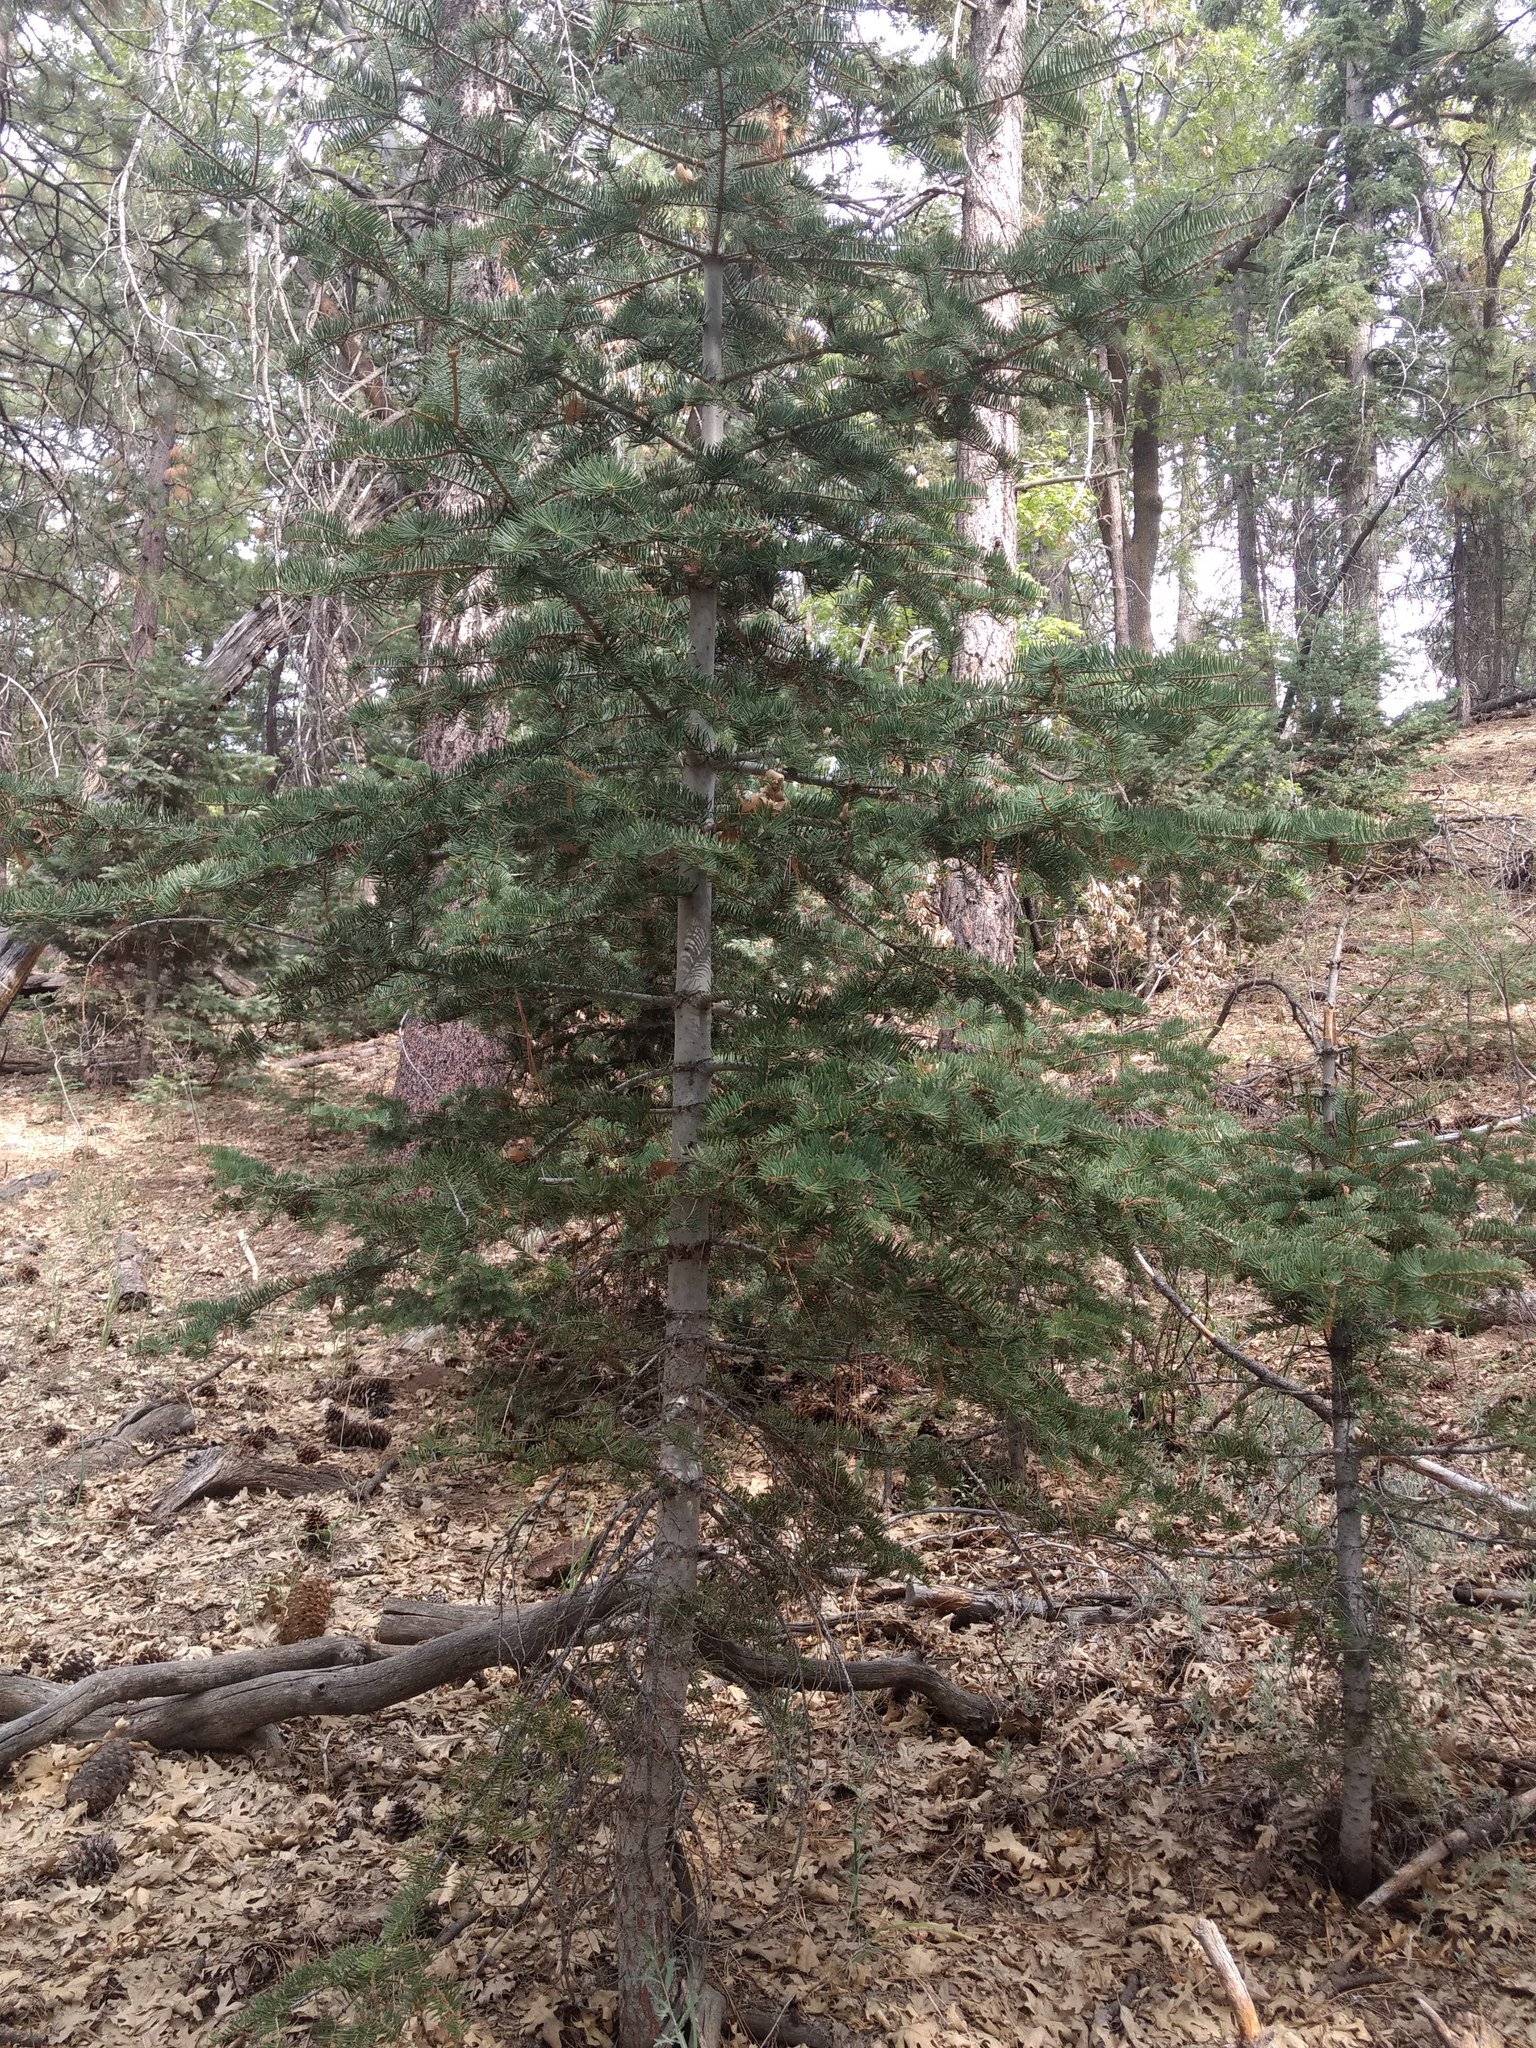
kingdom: Plantae
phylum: Tracheophyta
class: Pinopsida
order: Pinales
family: Pinaceae
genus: Abies
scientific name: Abies concolor
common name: Colorado fir
